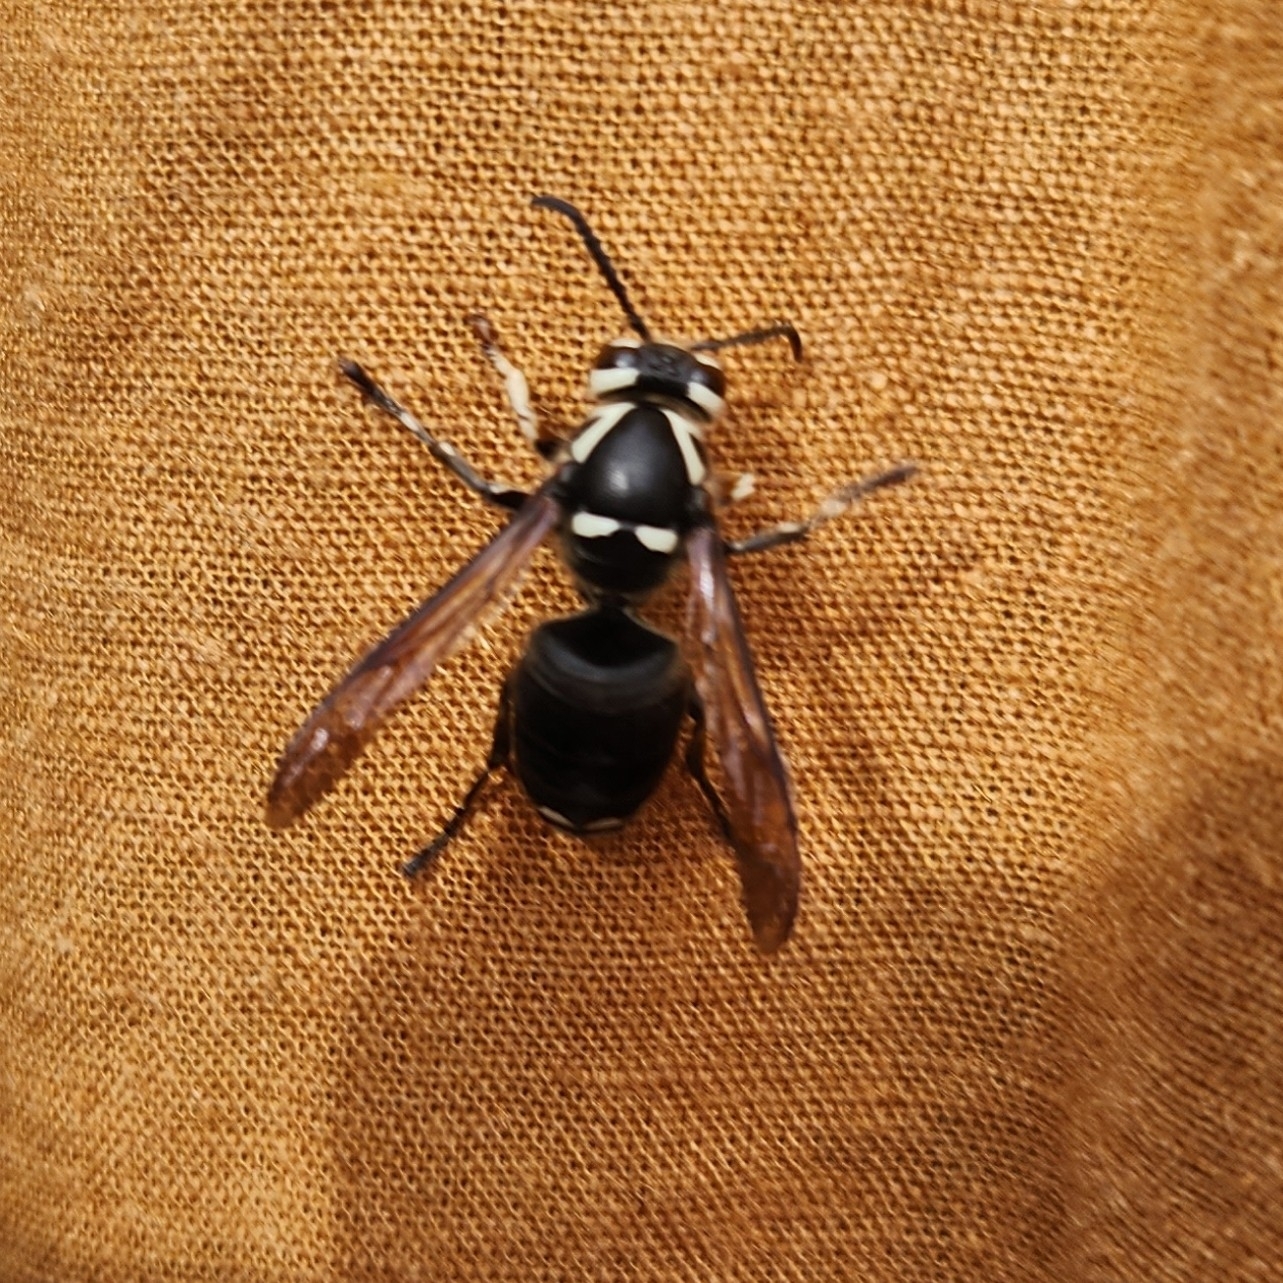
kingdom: Animalia
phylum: Arthropoda
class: Insecta
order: Hymenoptera
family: Vespidae
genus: Dolichovespula
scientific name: Dolichovespula maculata
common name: Bald-faced hornet
